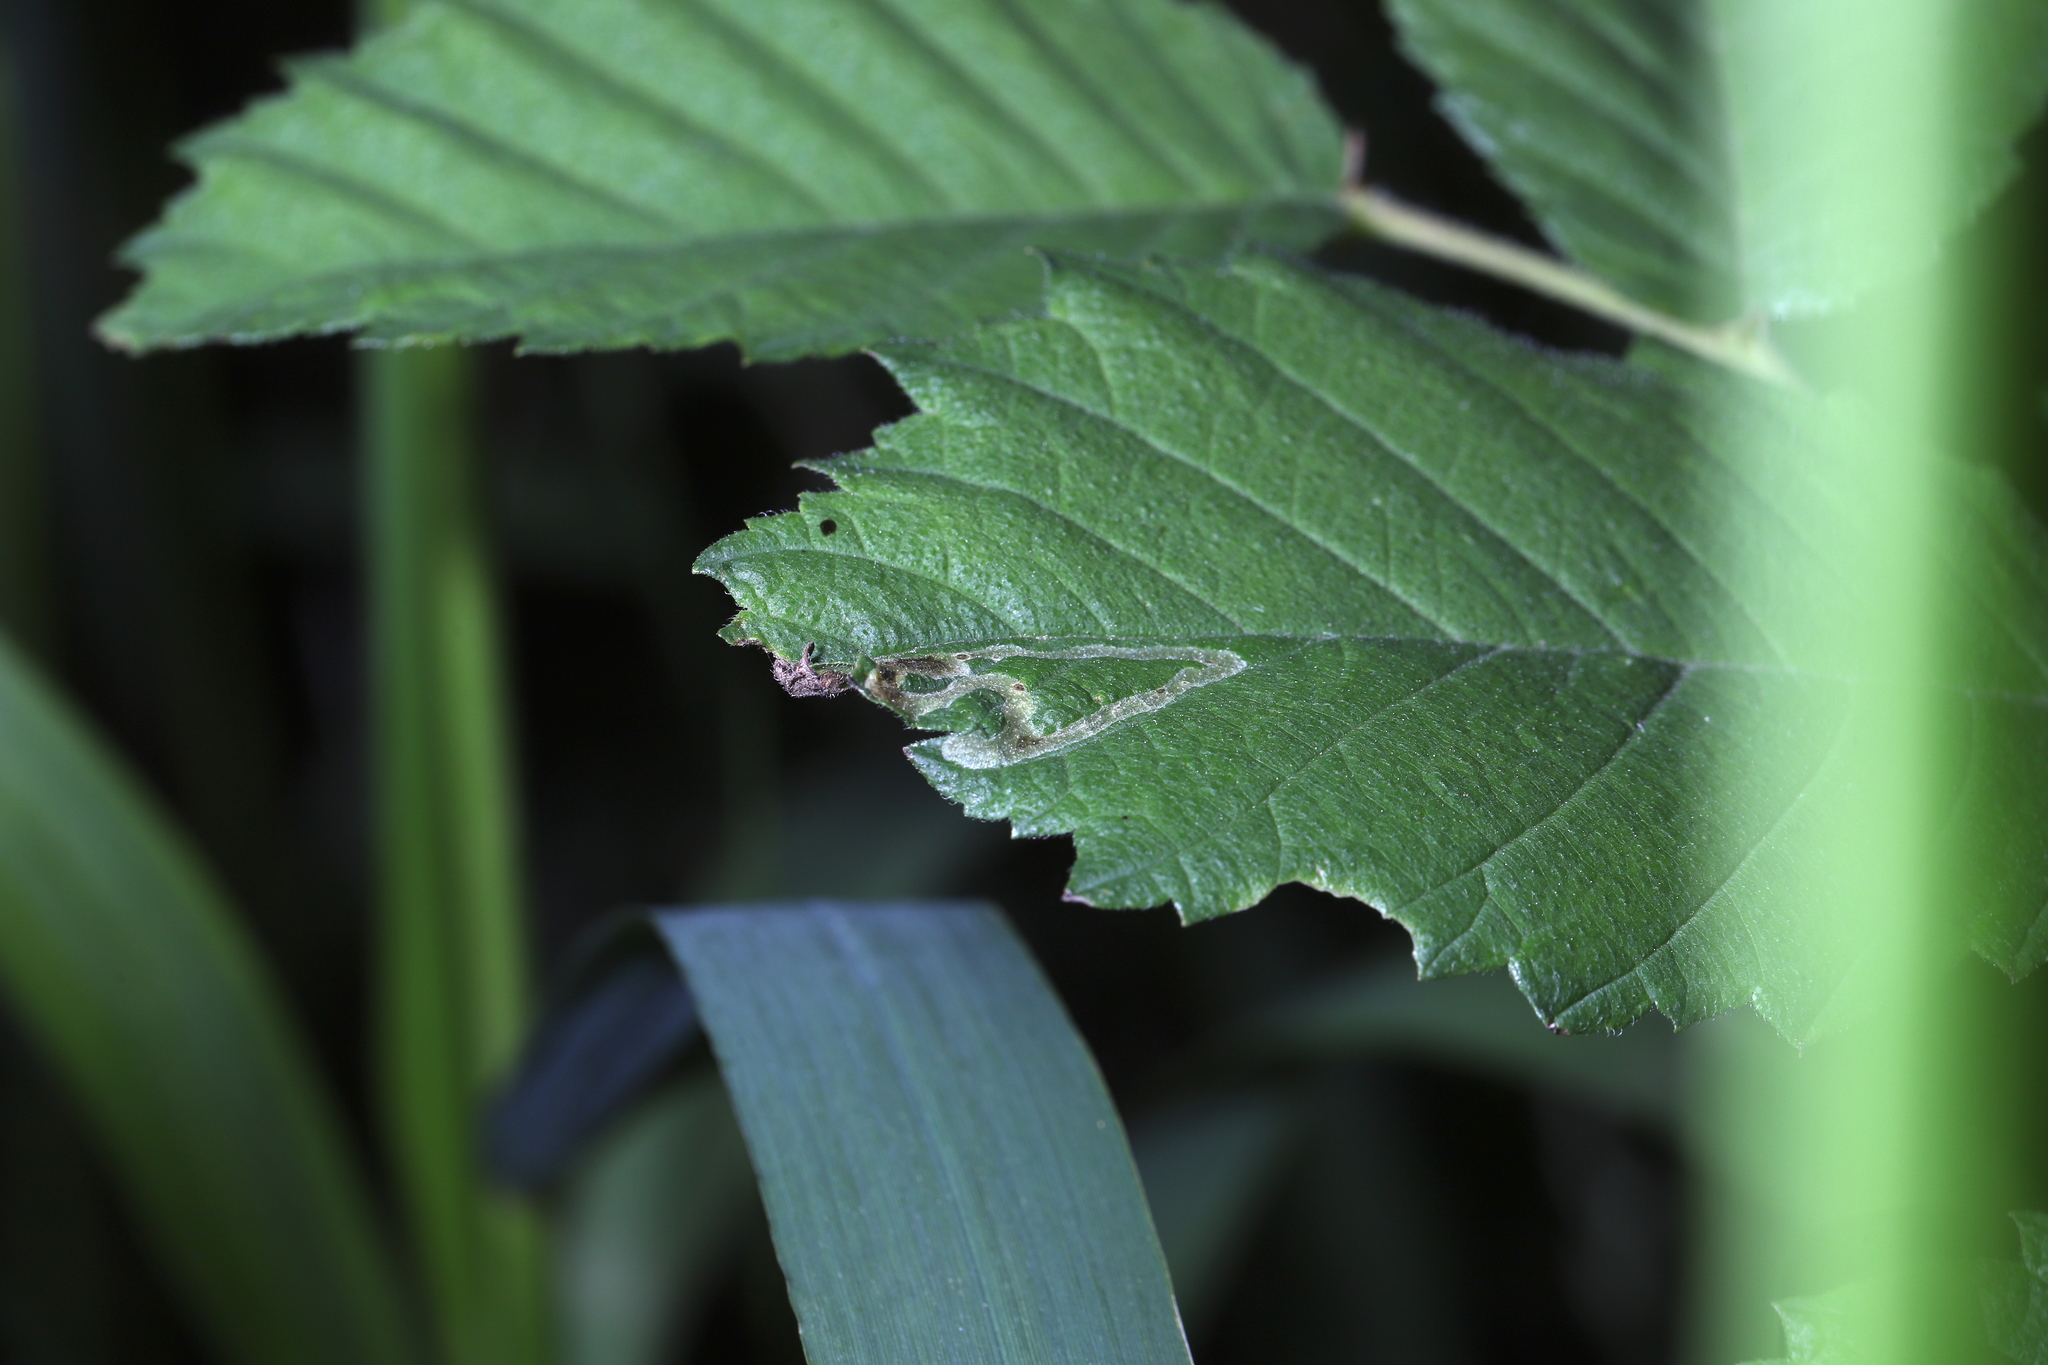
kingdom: Animalia
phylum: Arthropoda
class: Insecta
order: Diptera
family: Agromyzidae
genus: Agromyza
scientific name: Agromyza aristata
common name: Elm agromyzid leafminer
